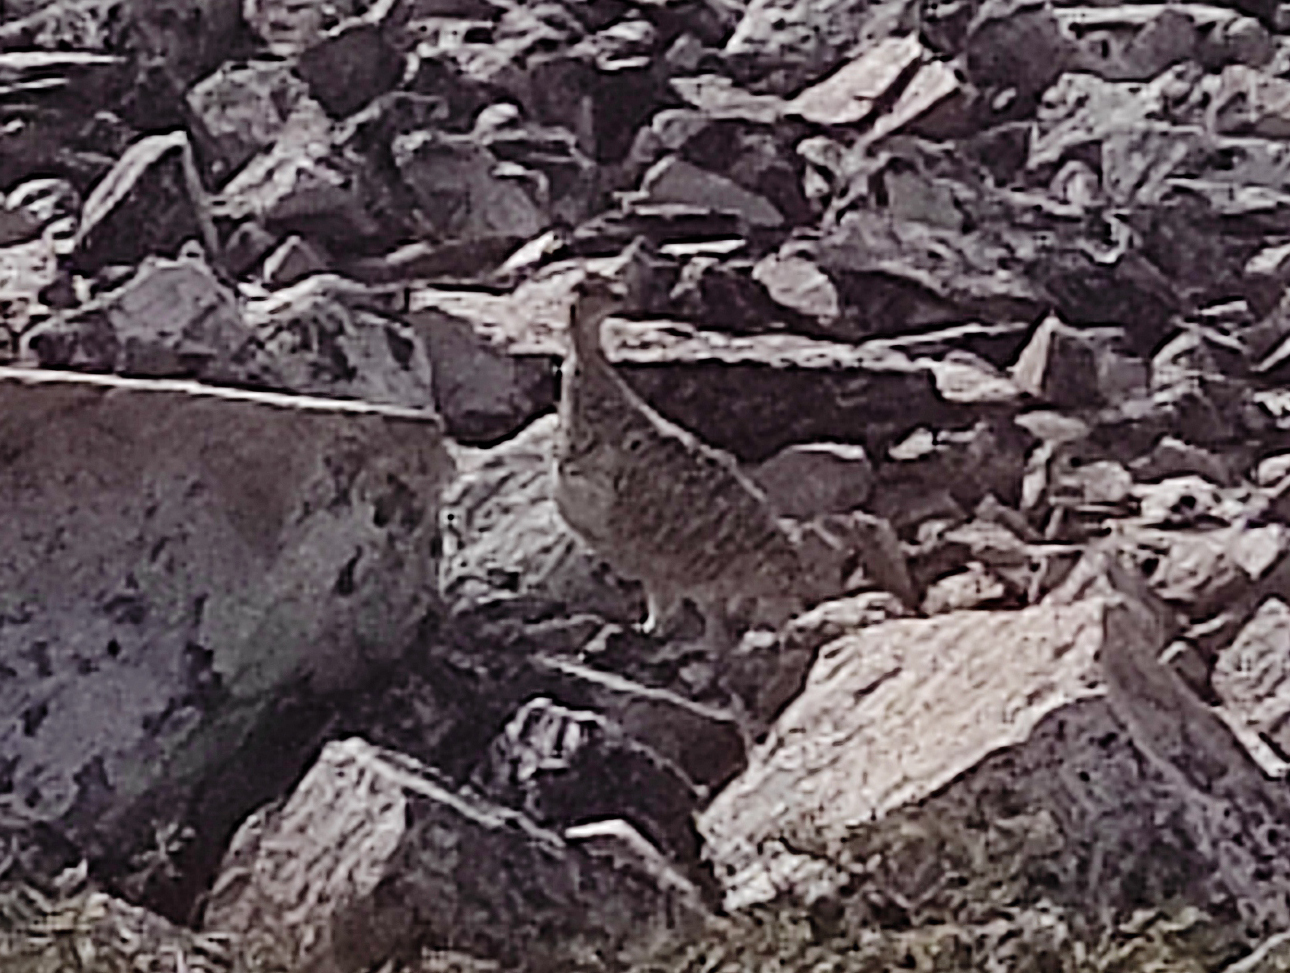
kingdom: Animalia
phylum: Chordata
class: Aves
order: Galliformes
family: Phasianidae
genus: Lagopus
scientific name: Lagopus muta
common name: Rock ptarmigan
